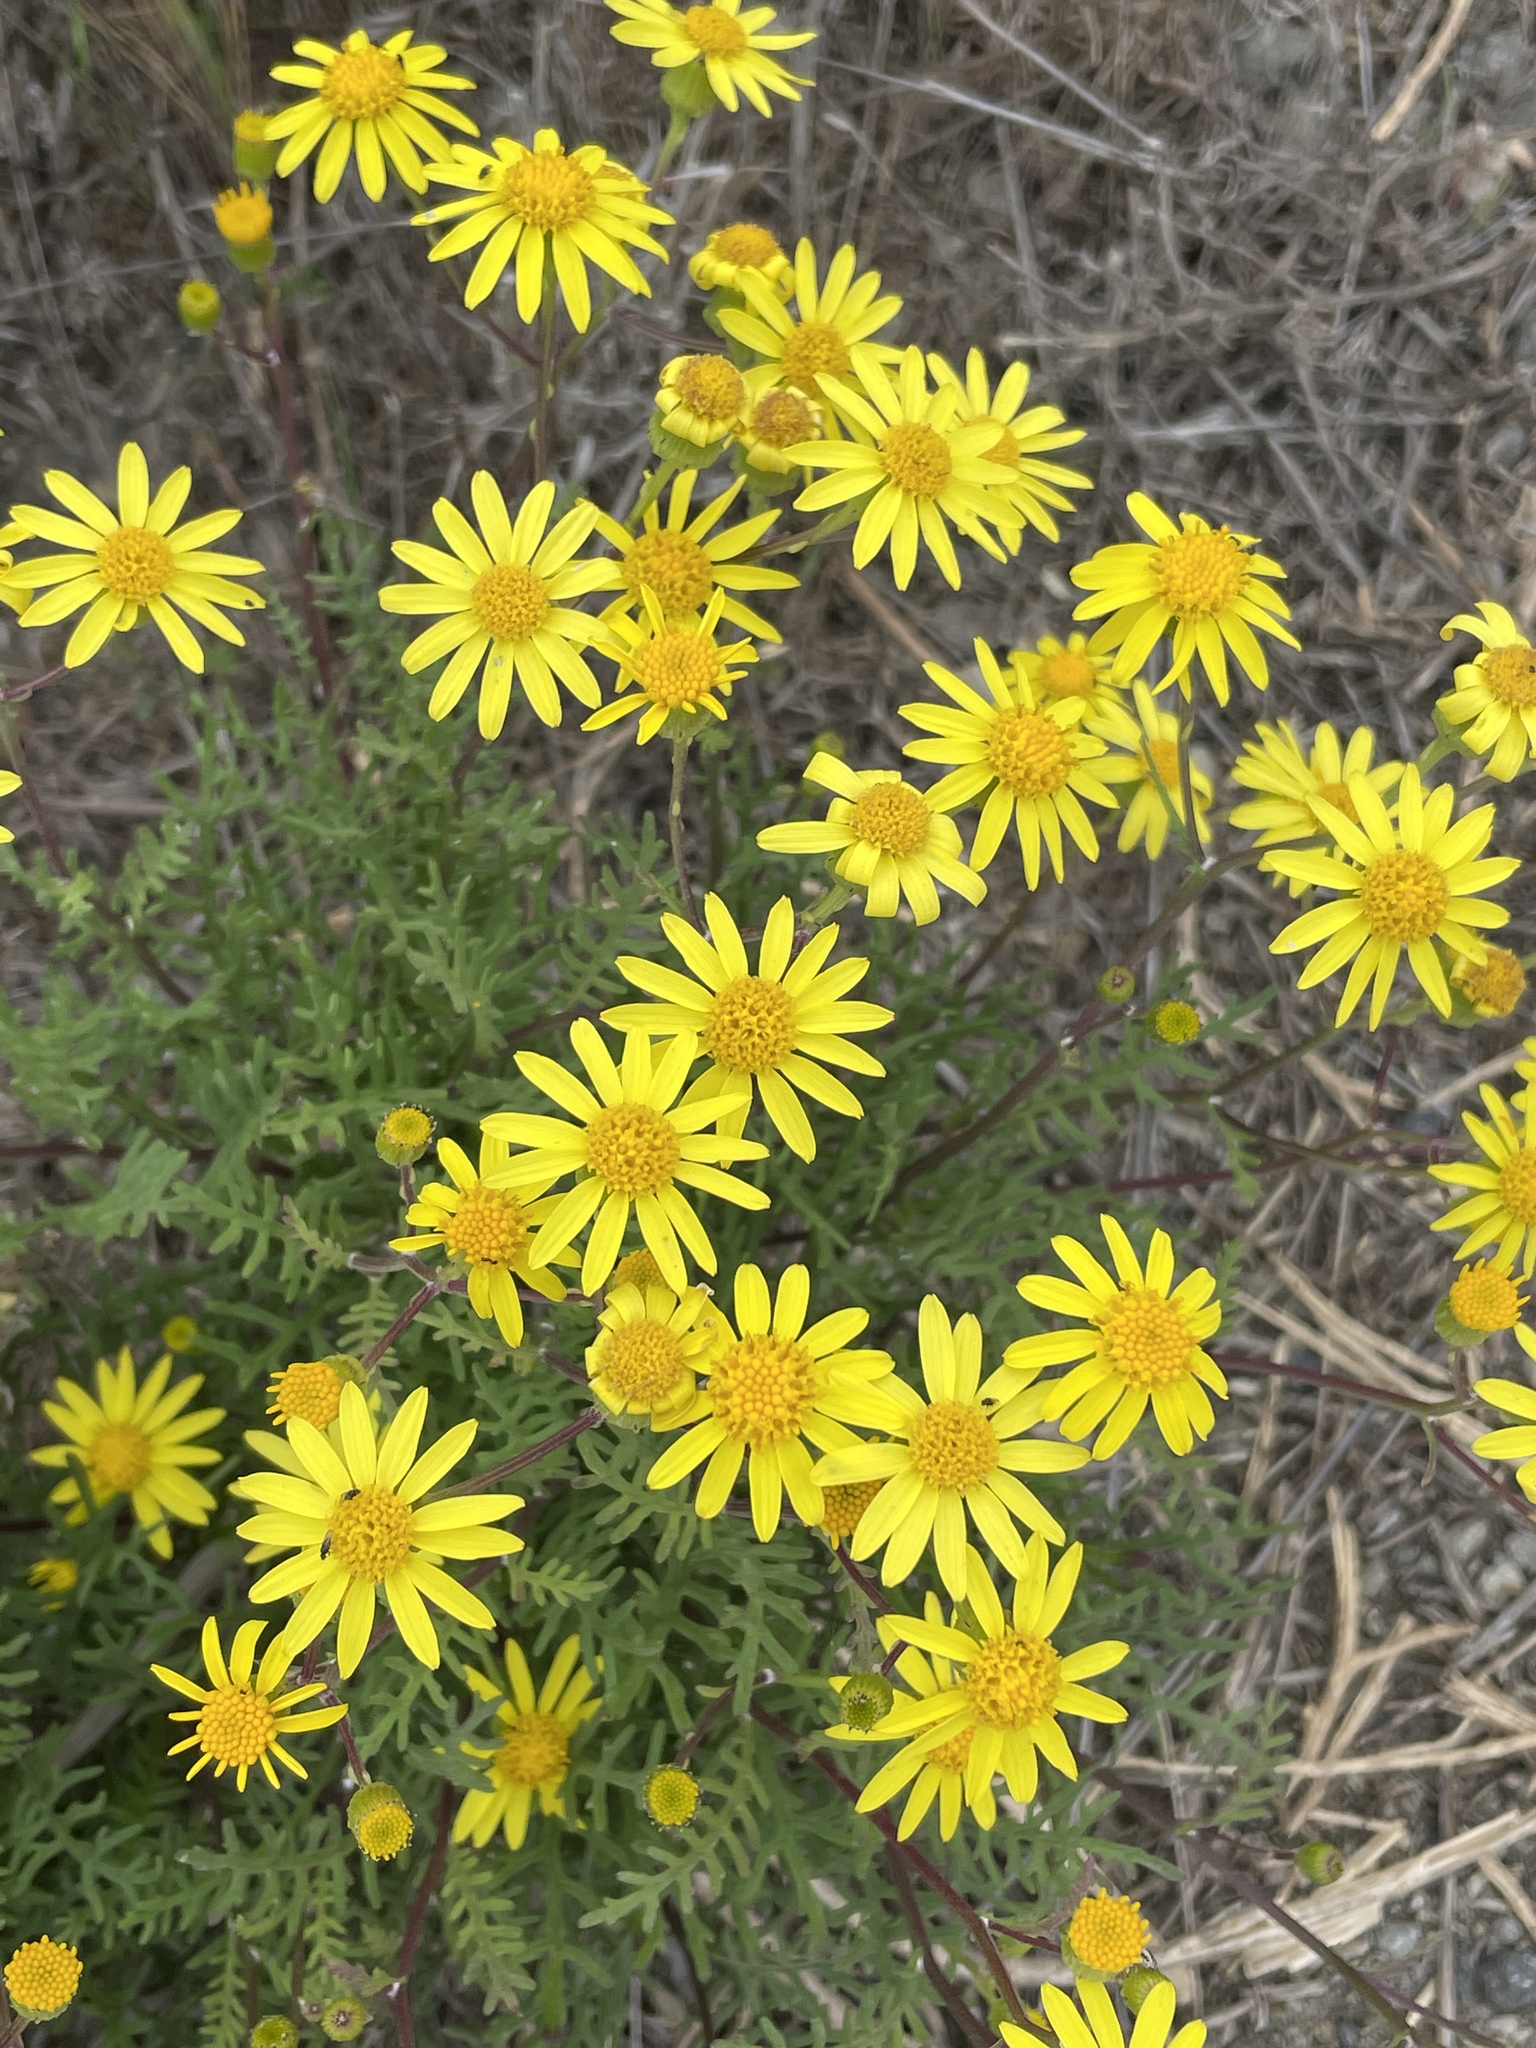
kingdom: Plantae
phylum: Tracheophyta
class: Magnoliopsida
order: Asterales
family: Asteraceae
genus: Senecio
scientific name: Senecio lyonii
